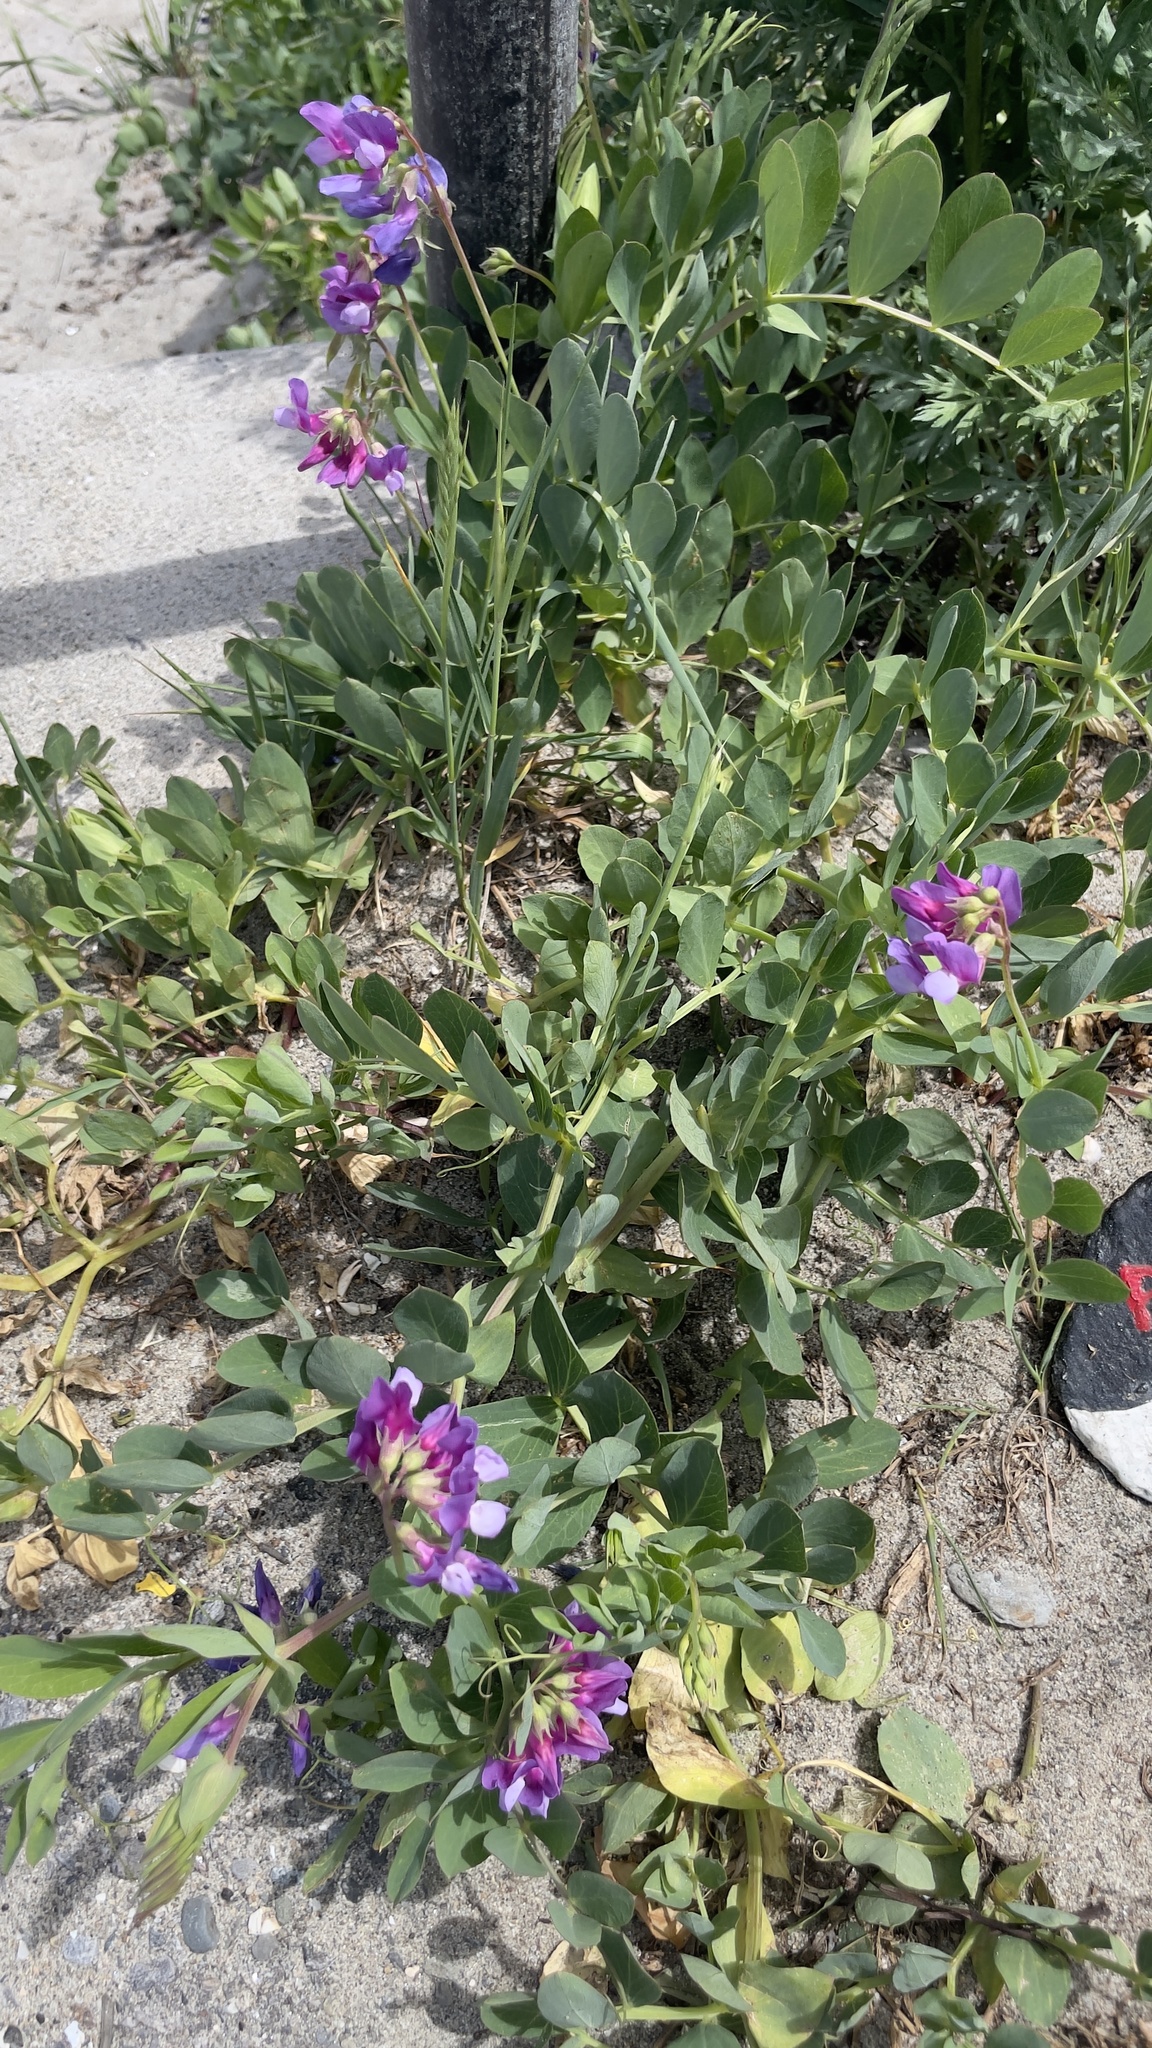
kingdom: Plantae
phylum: Tracheophyta
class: Magnoliopsida
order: Fabales
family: Fabaceae
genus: Lathyrus
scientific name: Lathyrus japonicus
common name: Sea pea
